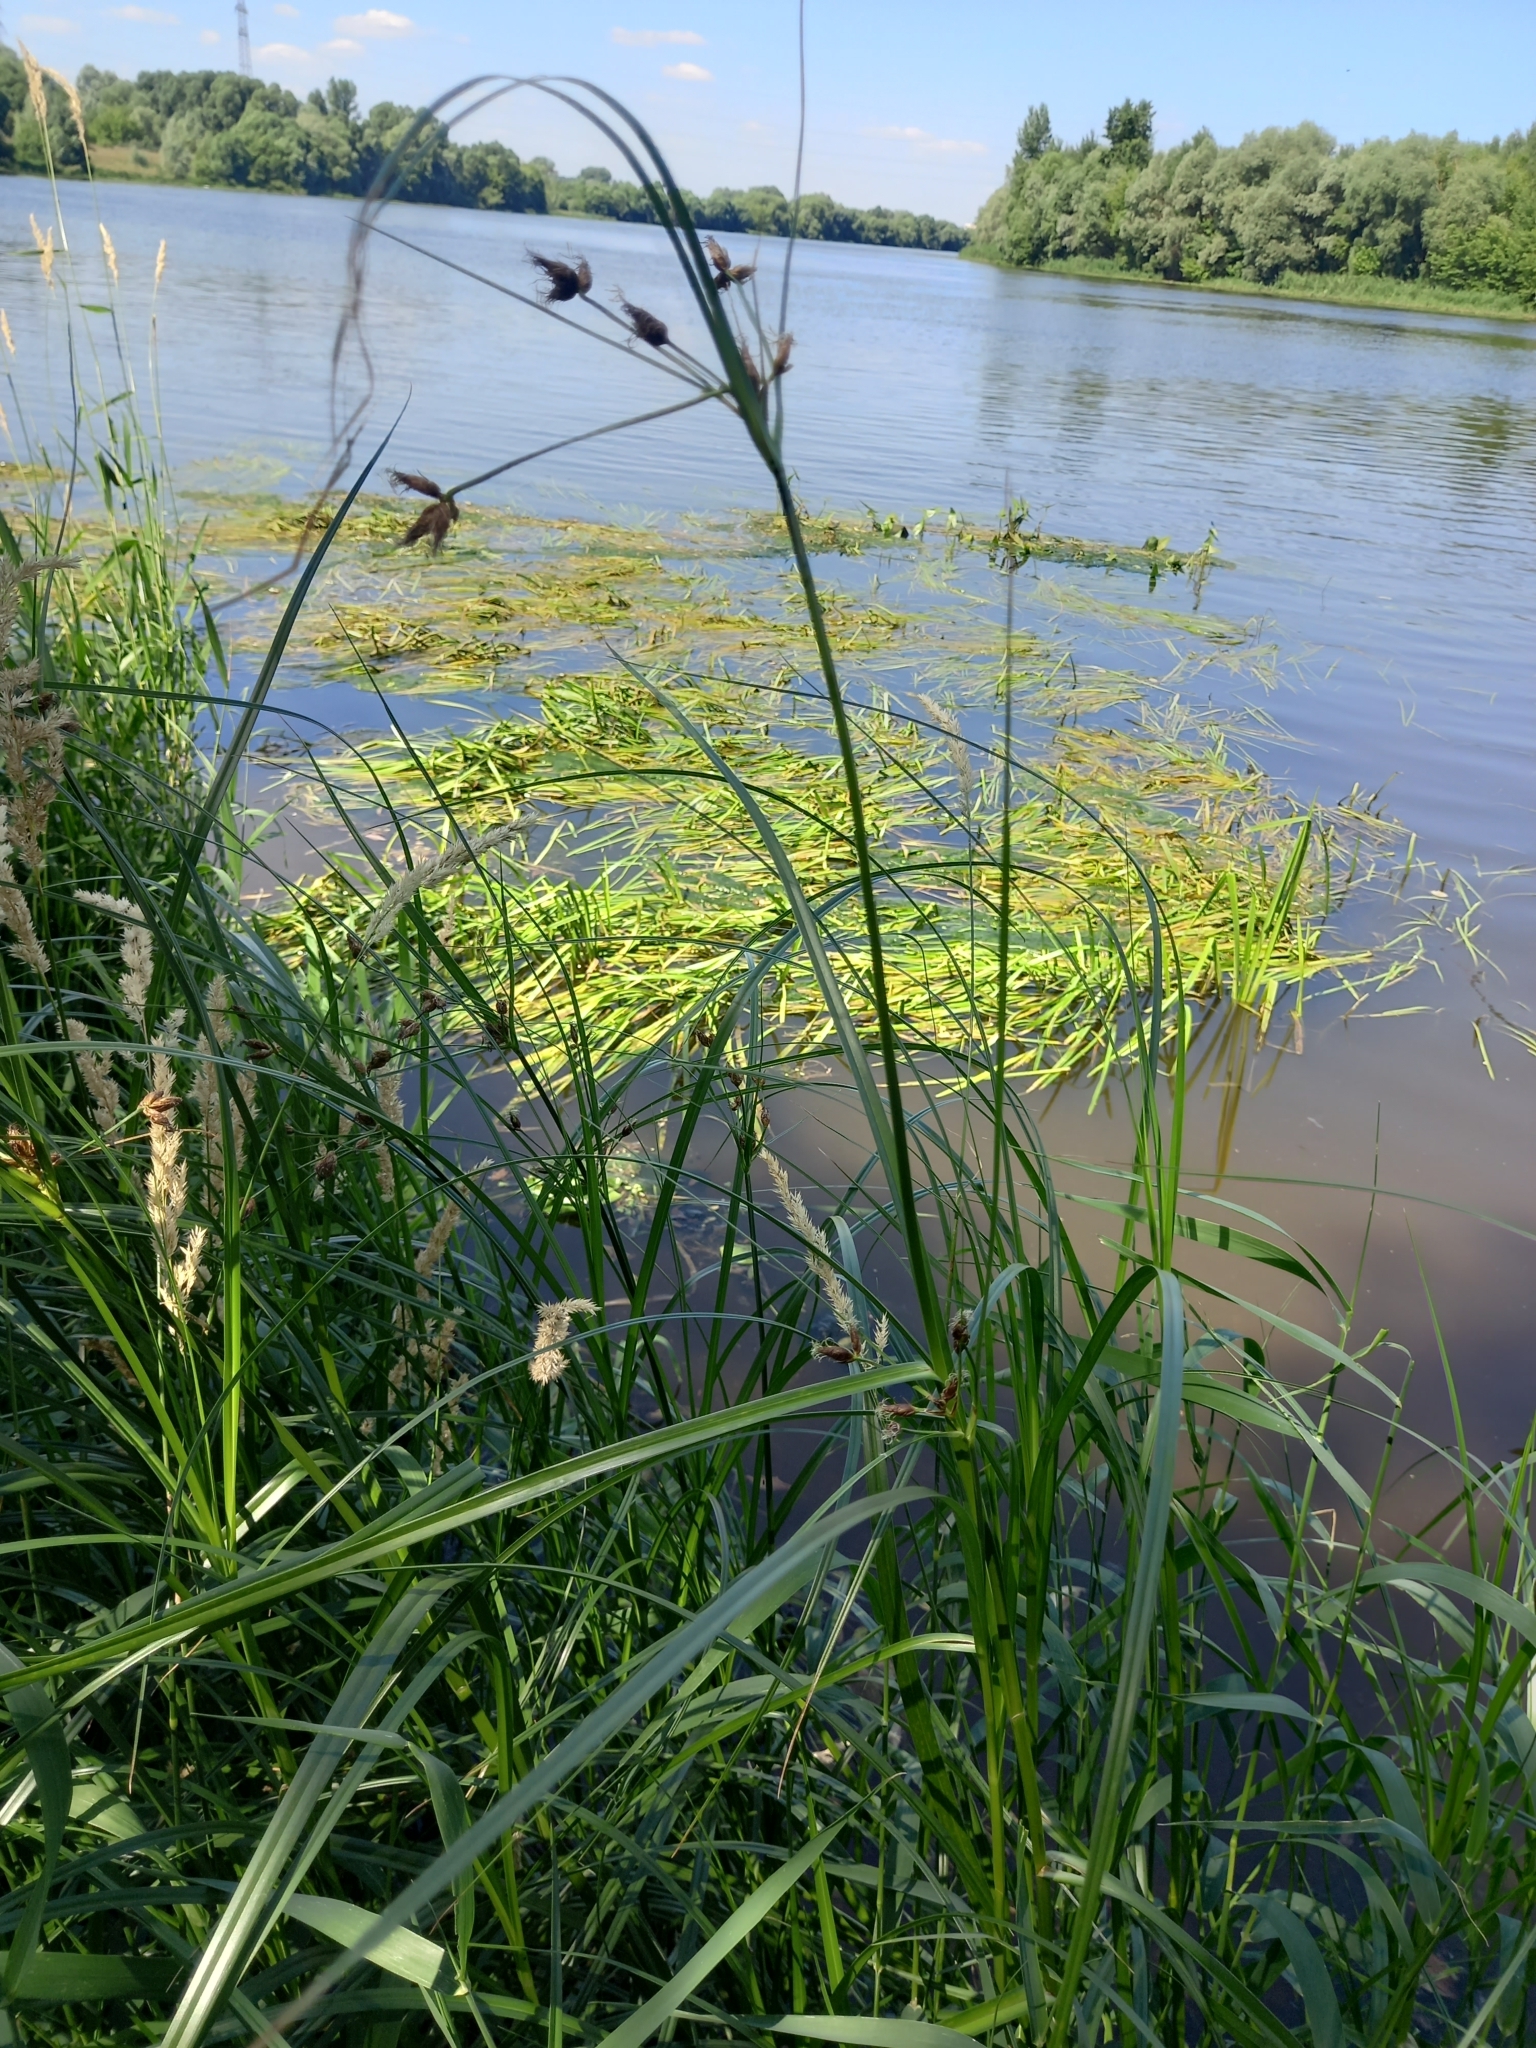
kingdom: Plantae
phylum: Tracheophyta
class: Liliopsida
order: Poales
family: Cyperaceae
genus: Bolboschoenus
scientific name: Bolboschoenus laticarpus
